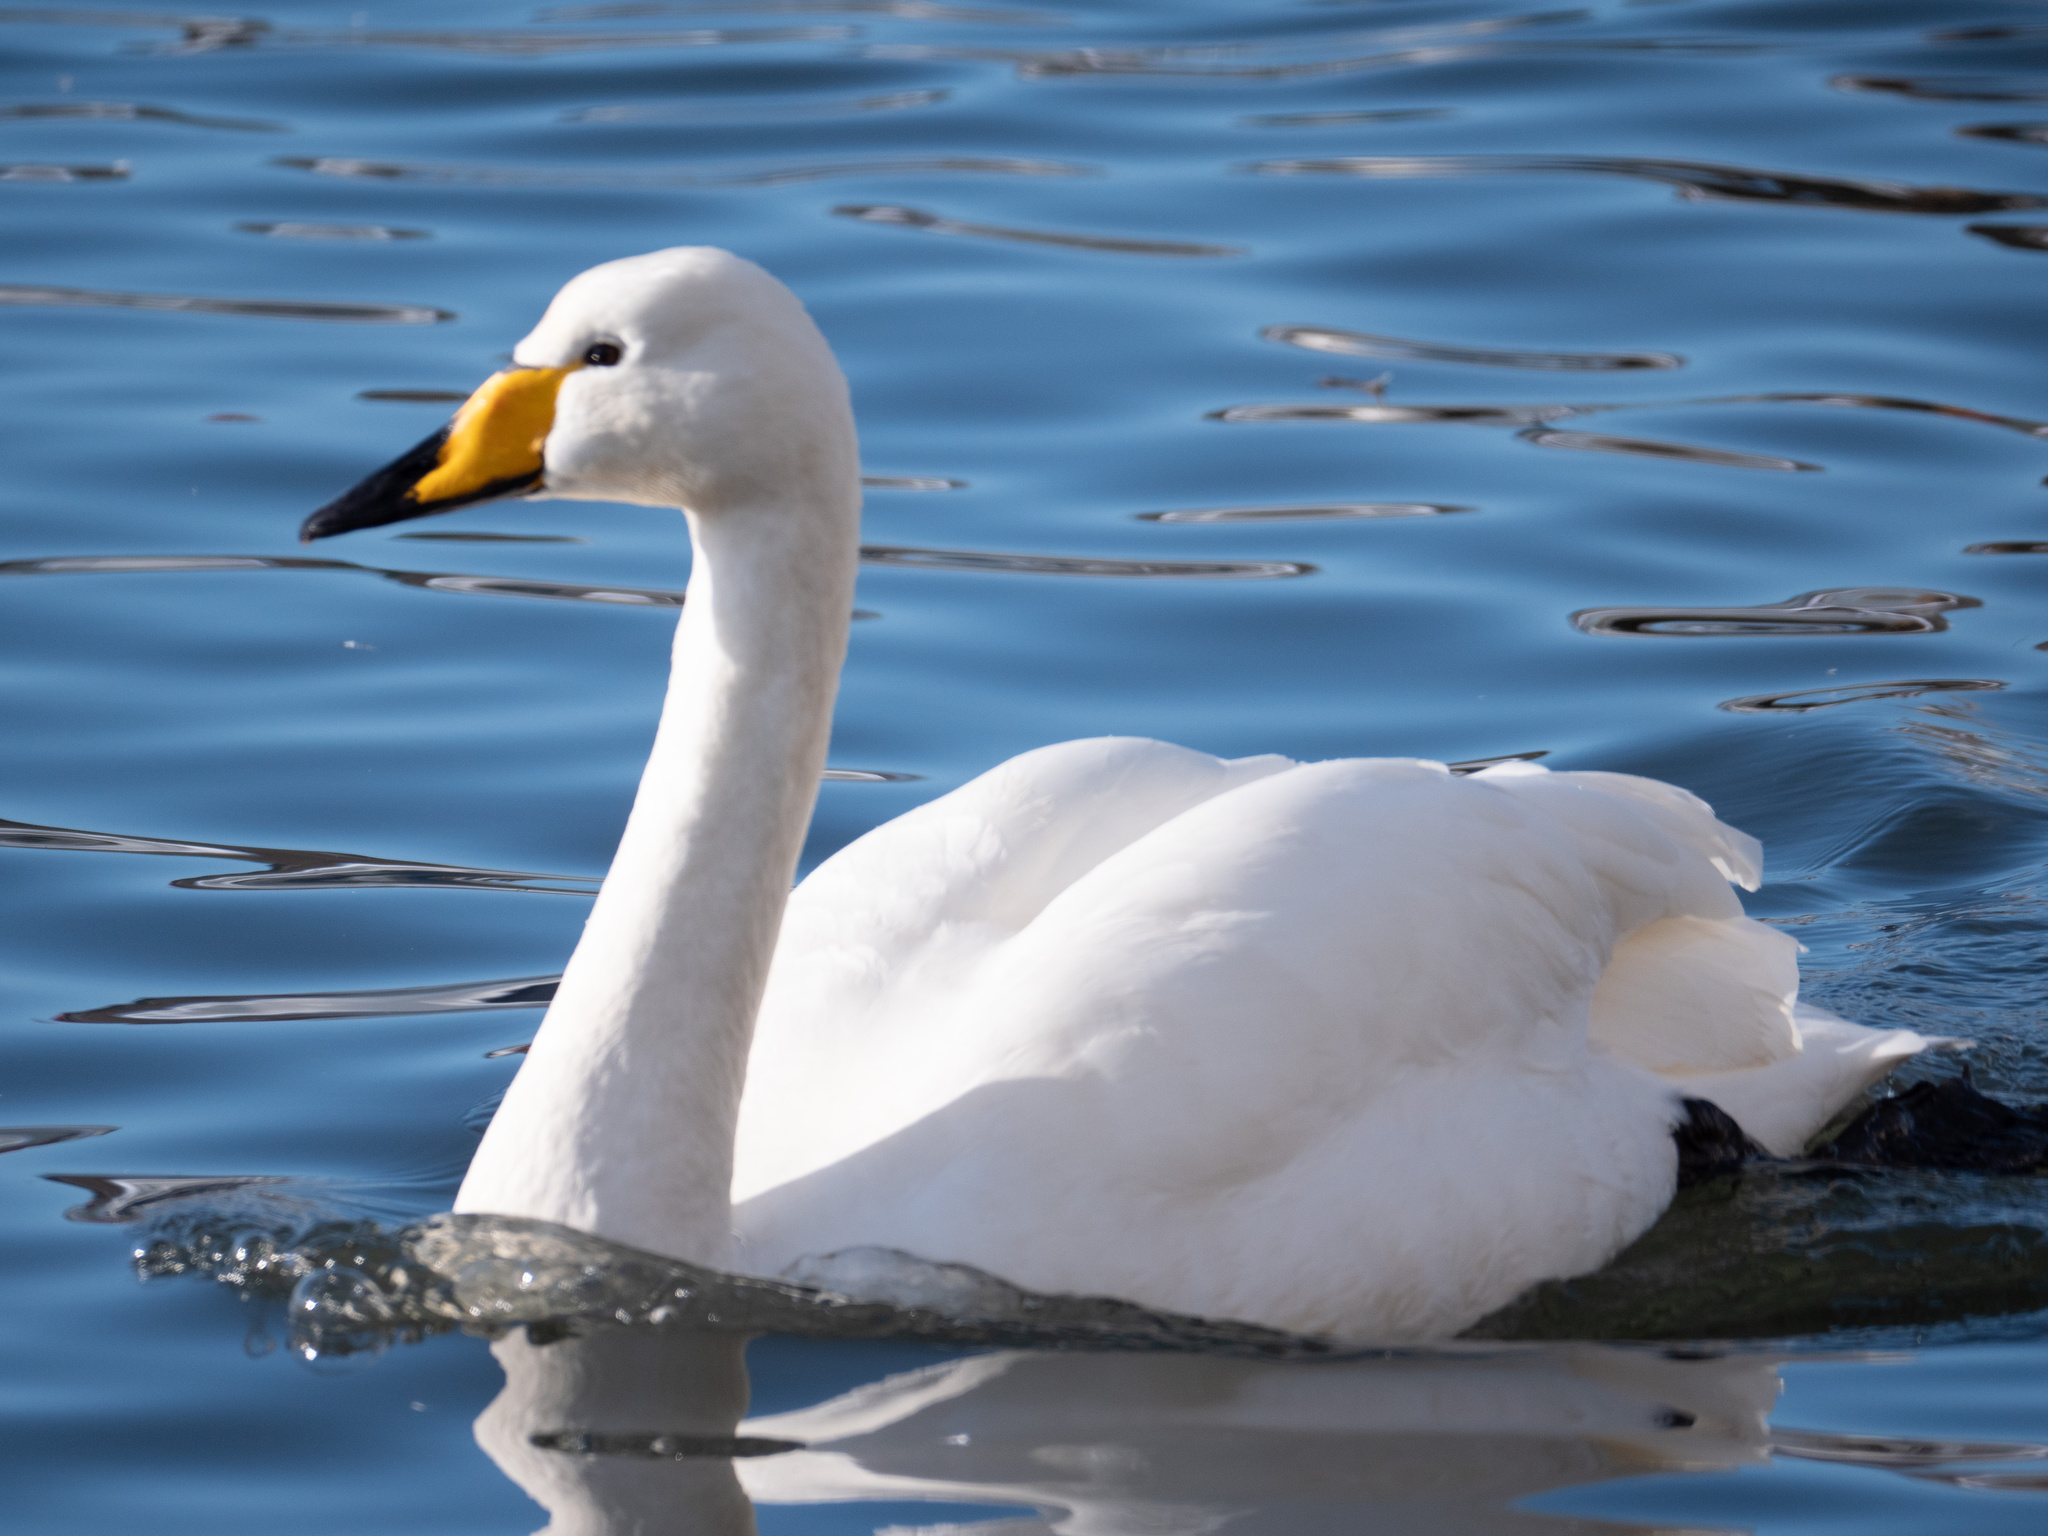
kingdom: Animalia
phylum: Chordata
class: Aves
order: Anseriformes
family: Anatidae
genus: Cygnus
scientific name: Cygnus cygnus
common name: Whooper swan
